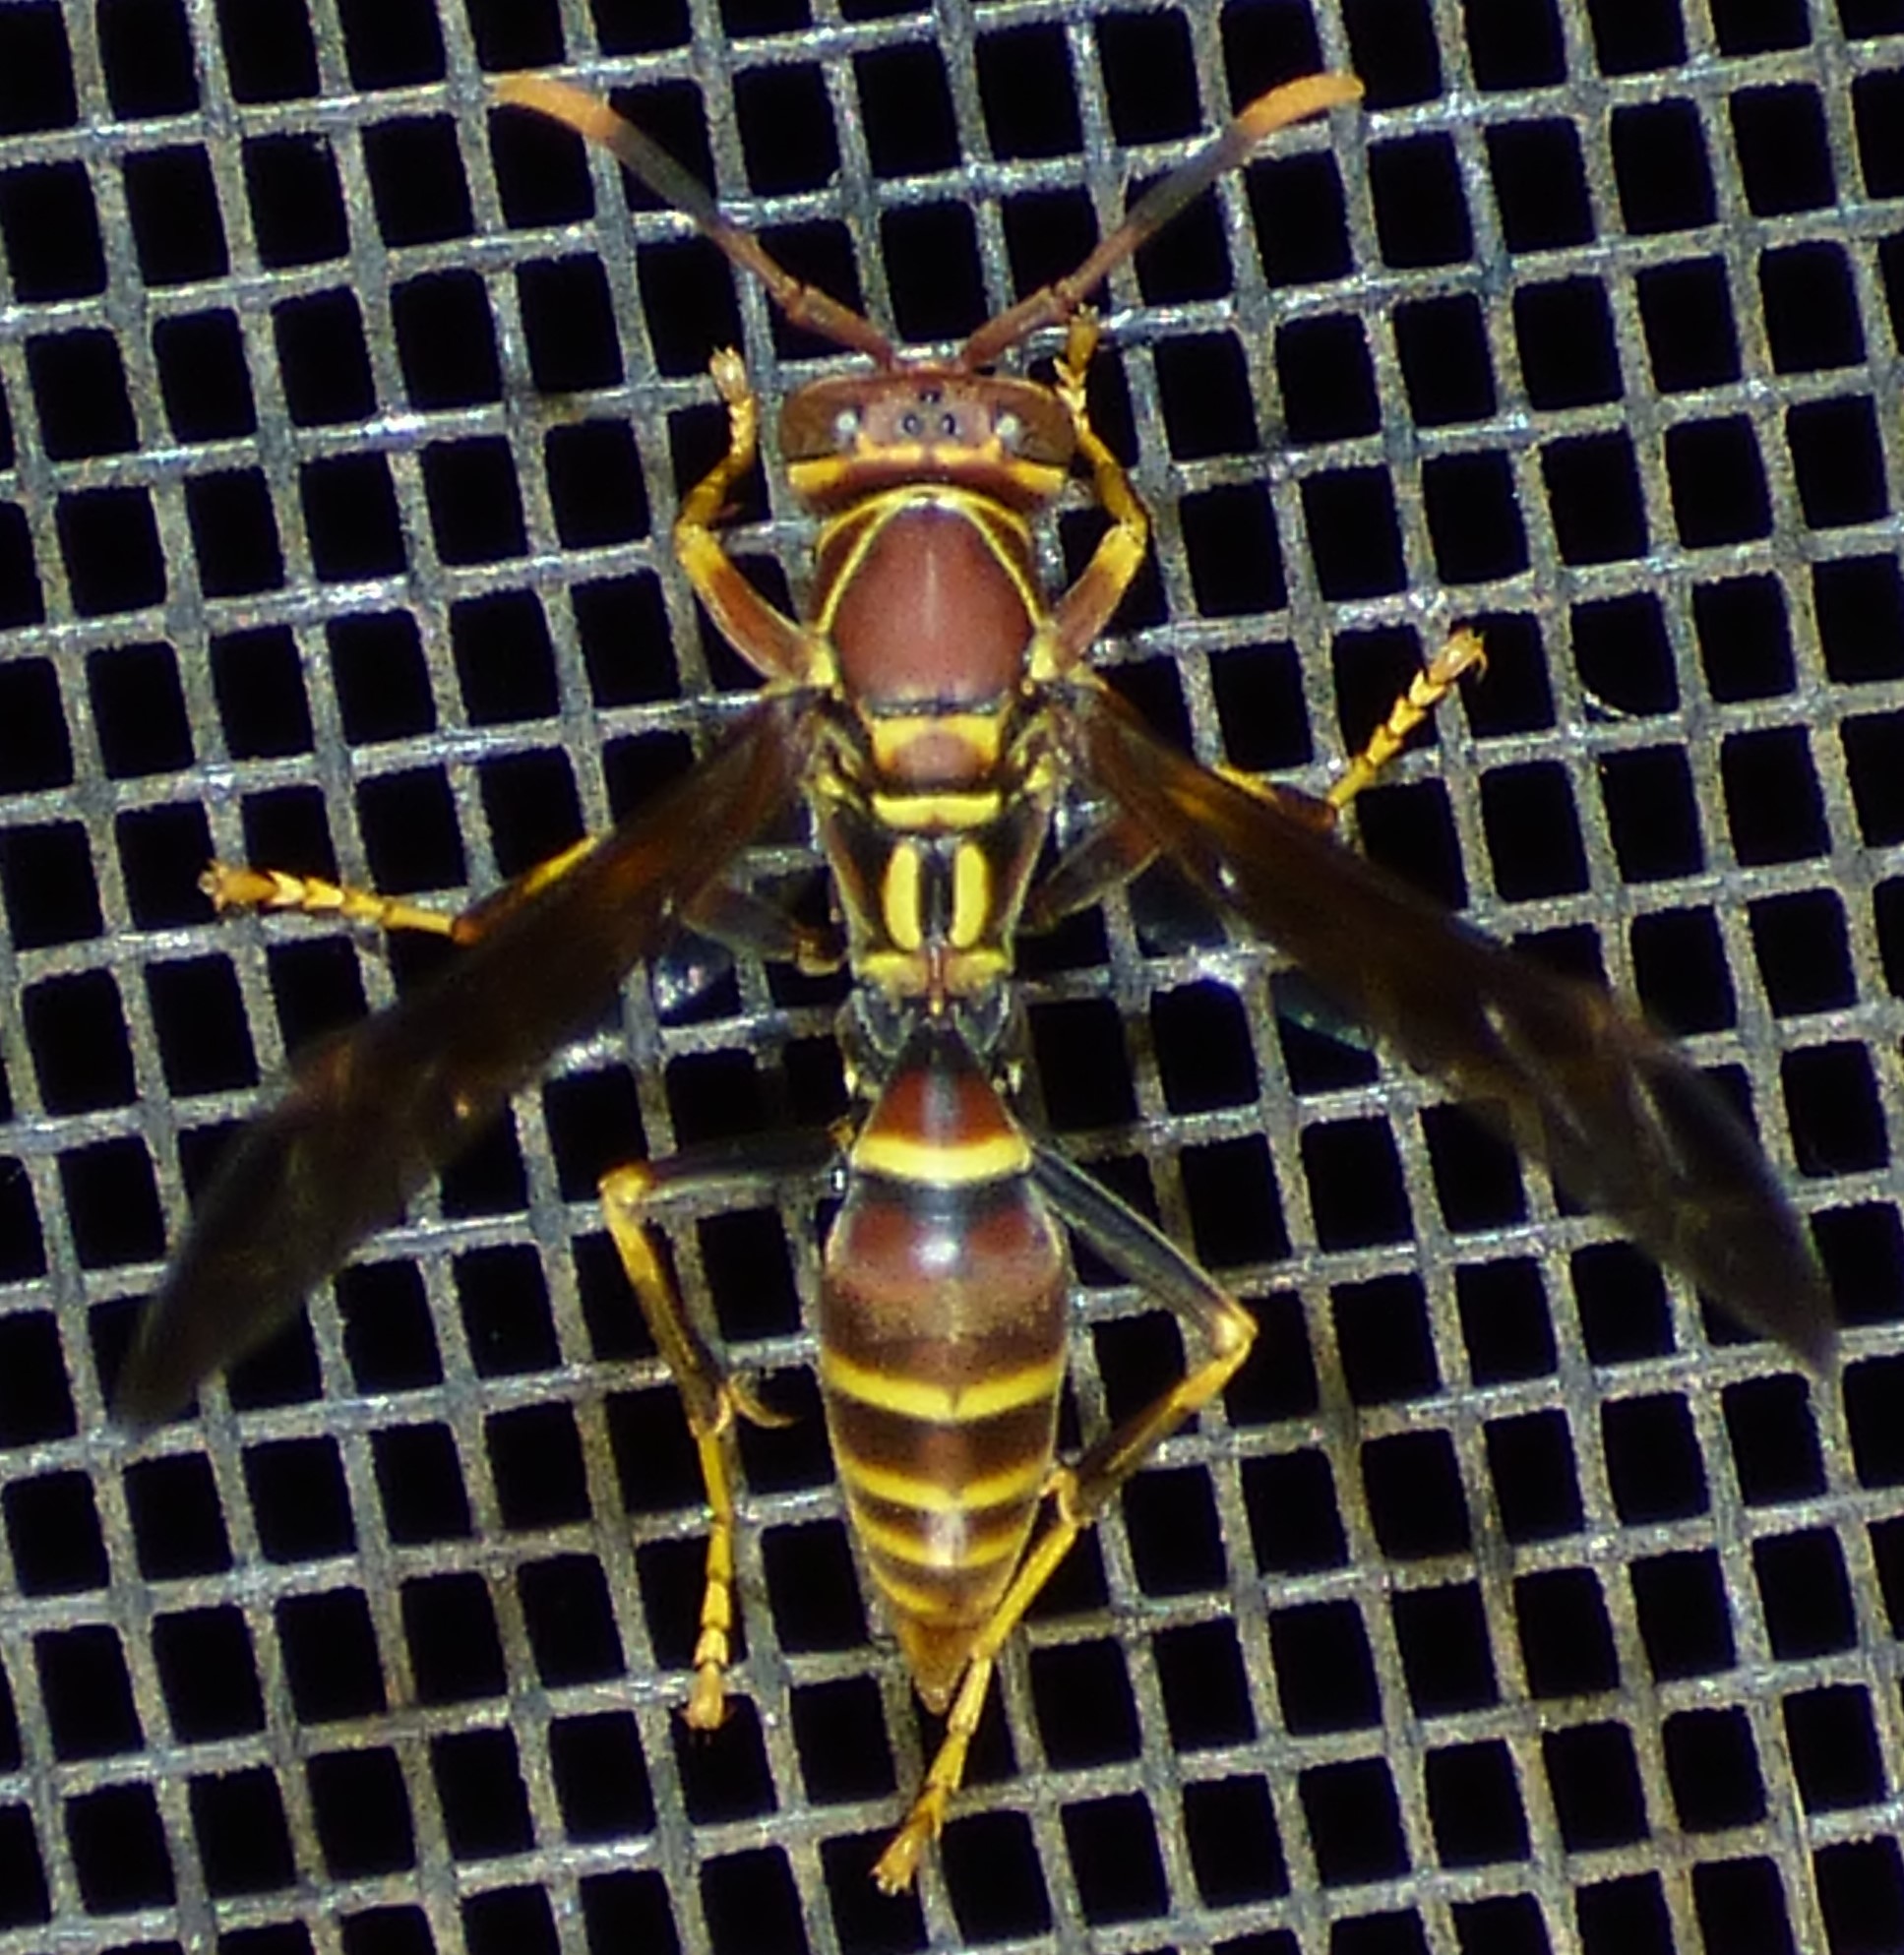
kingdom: Animalia
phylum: Arthropoda
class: Insecta
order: Hymenoptera
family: Eumenidae
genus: Polistes
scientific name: Polistes exclamans
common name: Paper wasp
